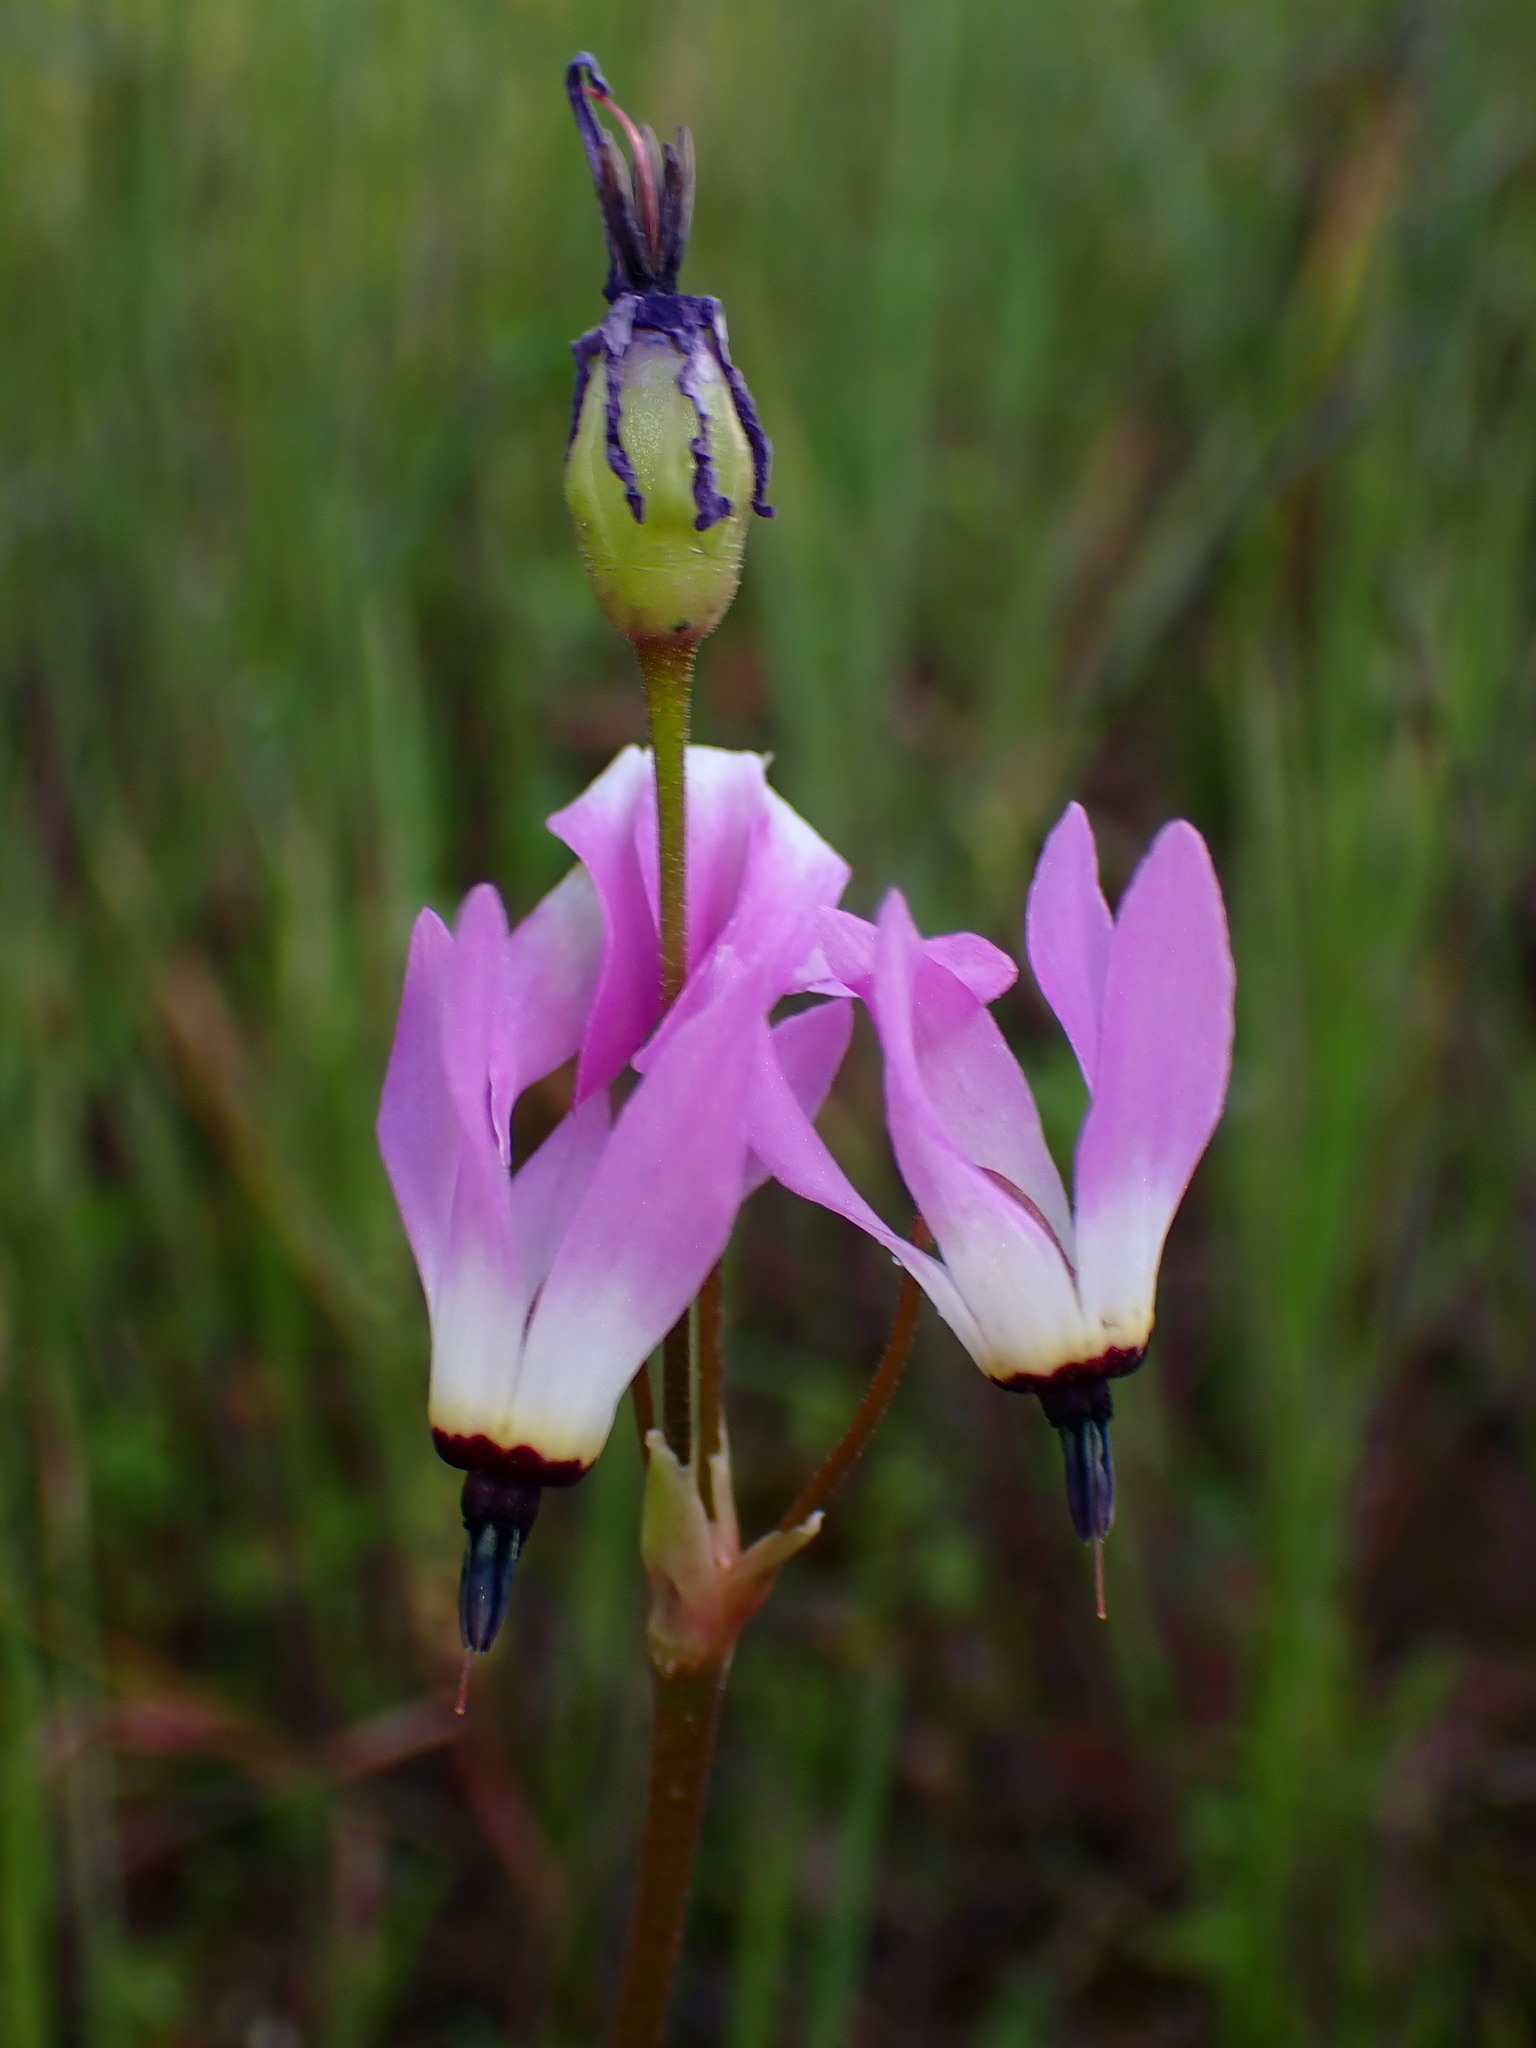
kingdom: Plantae
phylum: Tracheophyta
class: Magnoliopsida
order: Ericales
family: Primulaceae
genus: Dodecatheon
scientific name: Dodecatheon hendersonii
